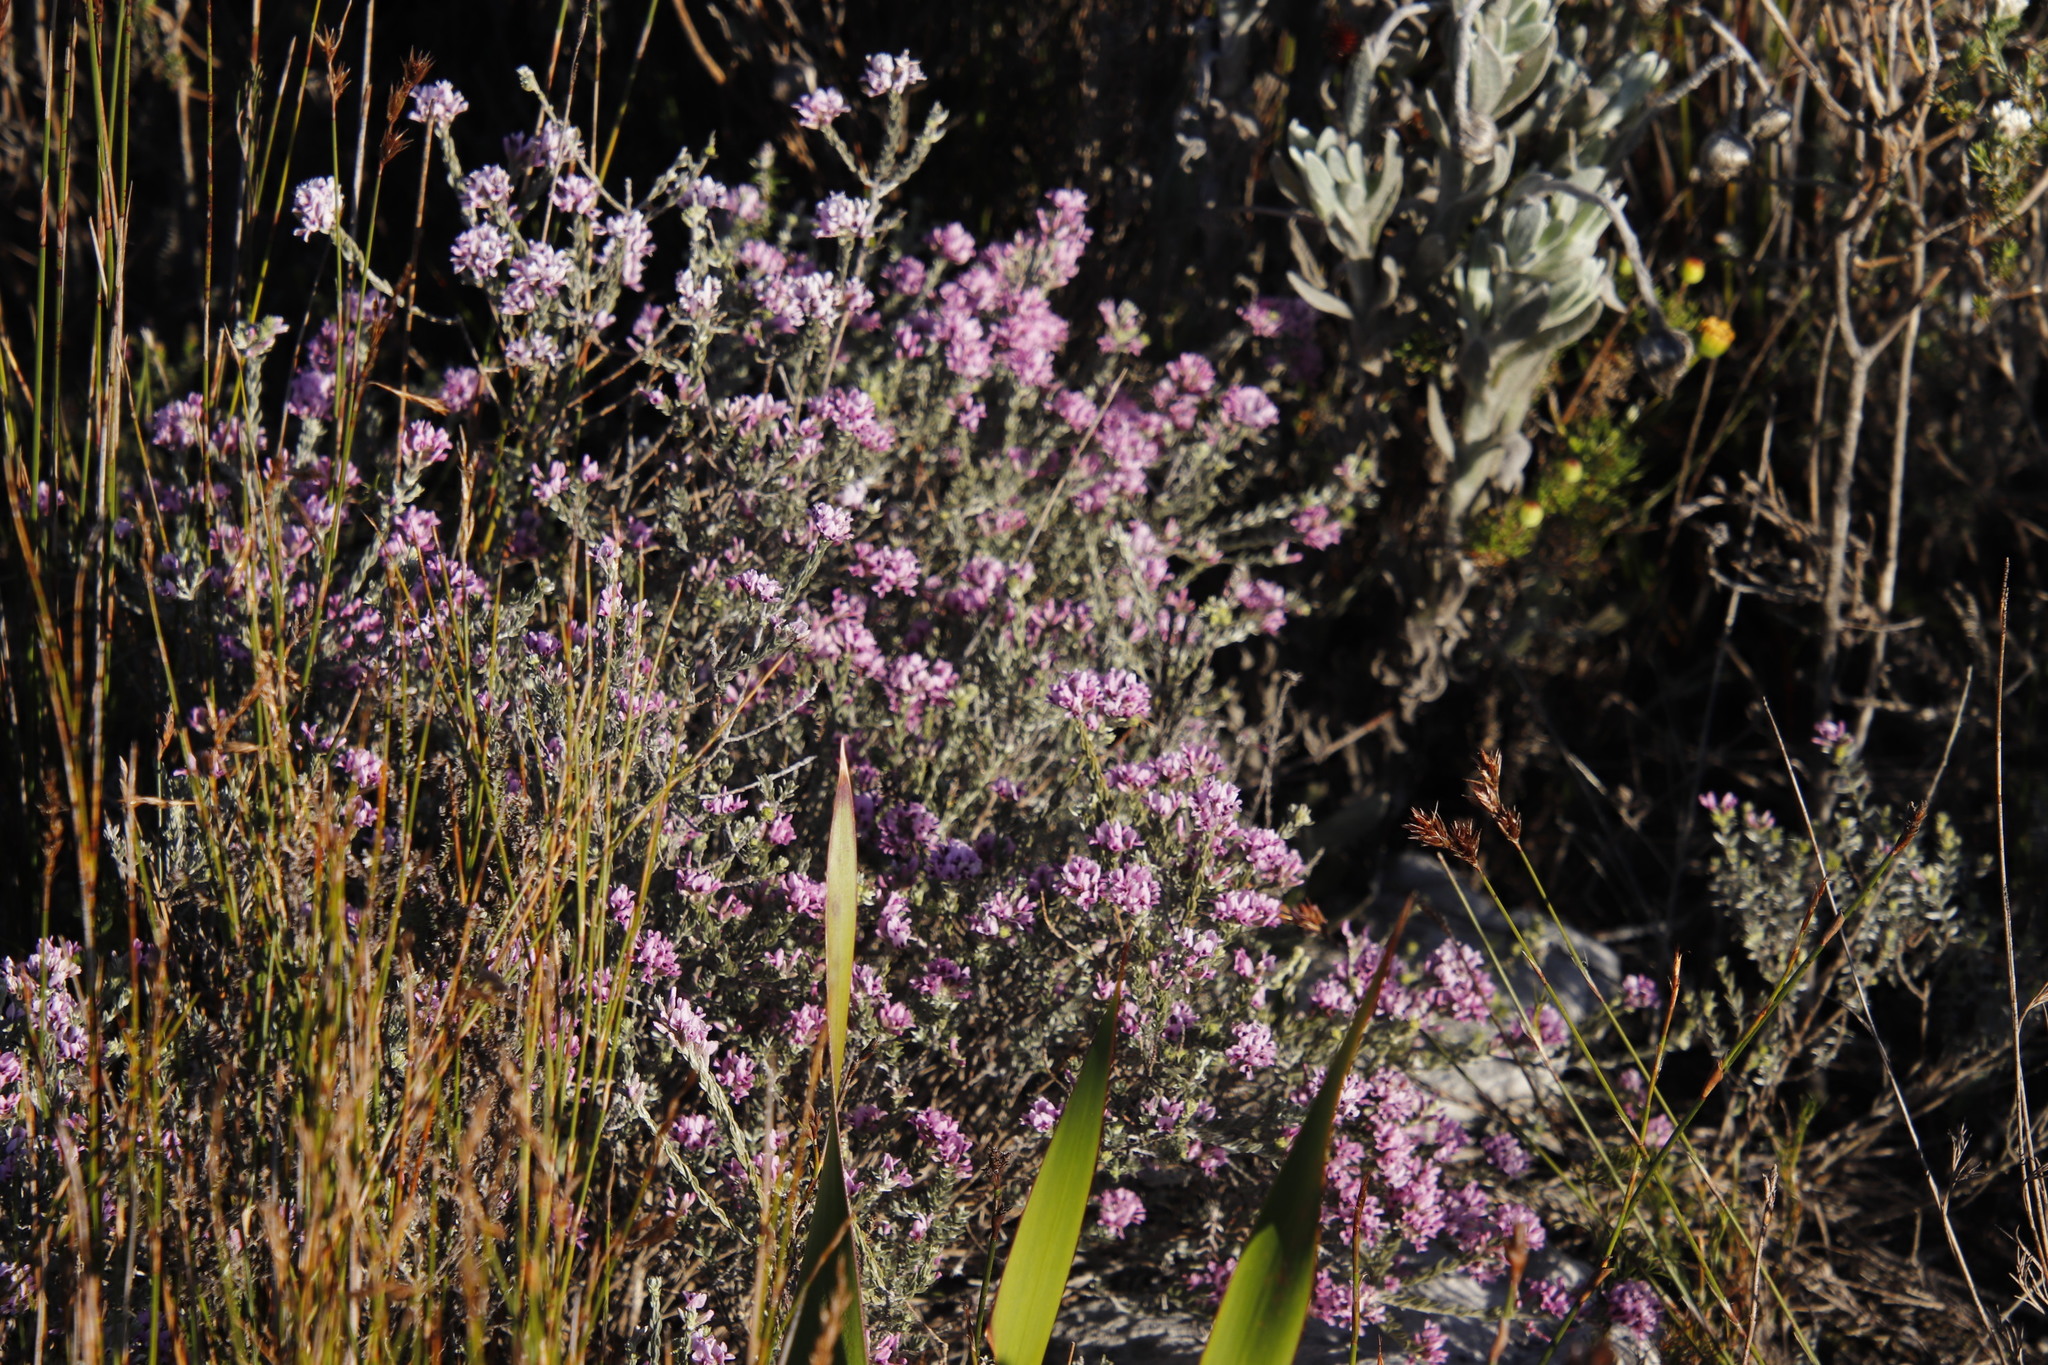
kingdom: Plantae
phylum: Tracheophyta
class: Magnoliopsida
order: Fabales
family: Fabaceae
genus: Amphithalea
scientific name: Amphithalea ericifolia
